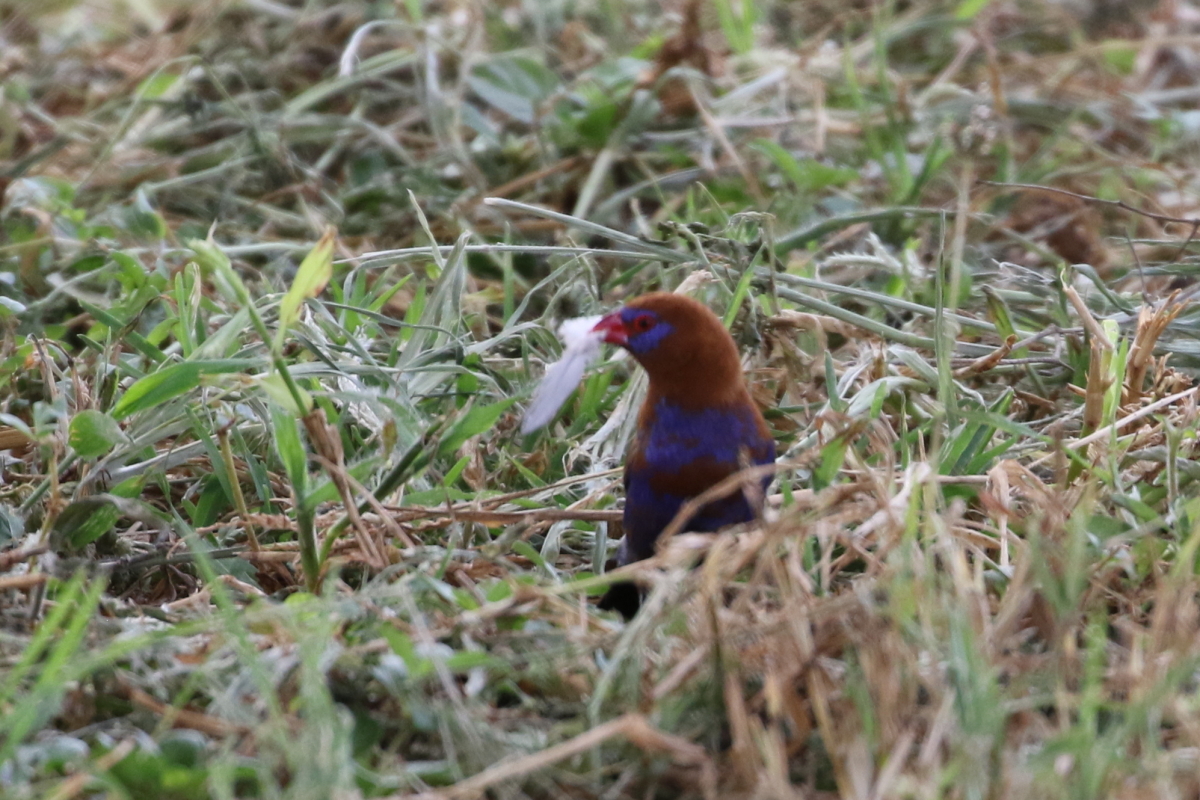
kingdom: Animalia
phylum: Chordata
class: Aves
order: Passeriformes
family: Estrildidae
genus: Uraeginthus
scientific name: Uraeginthus ianthinogaster
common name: Purple grenadier
